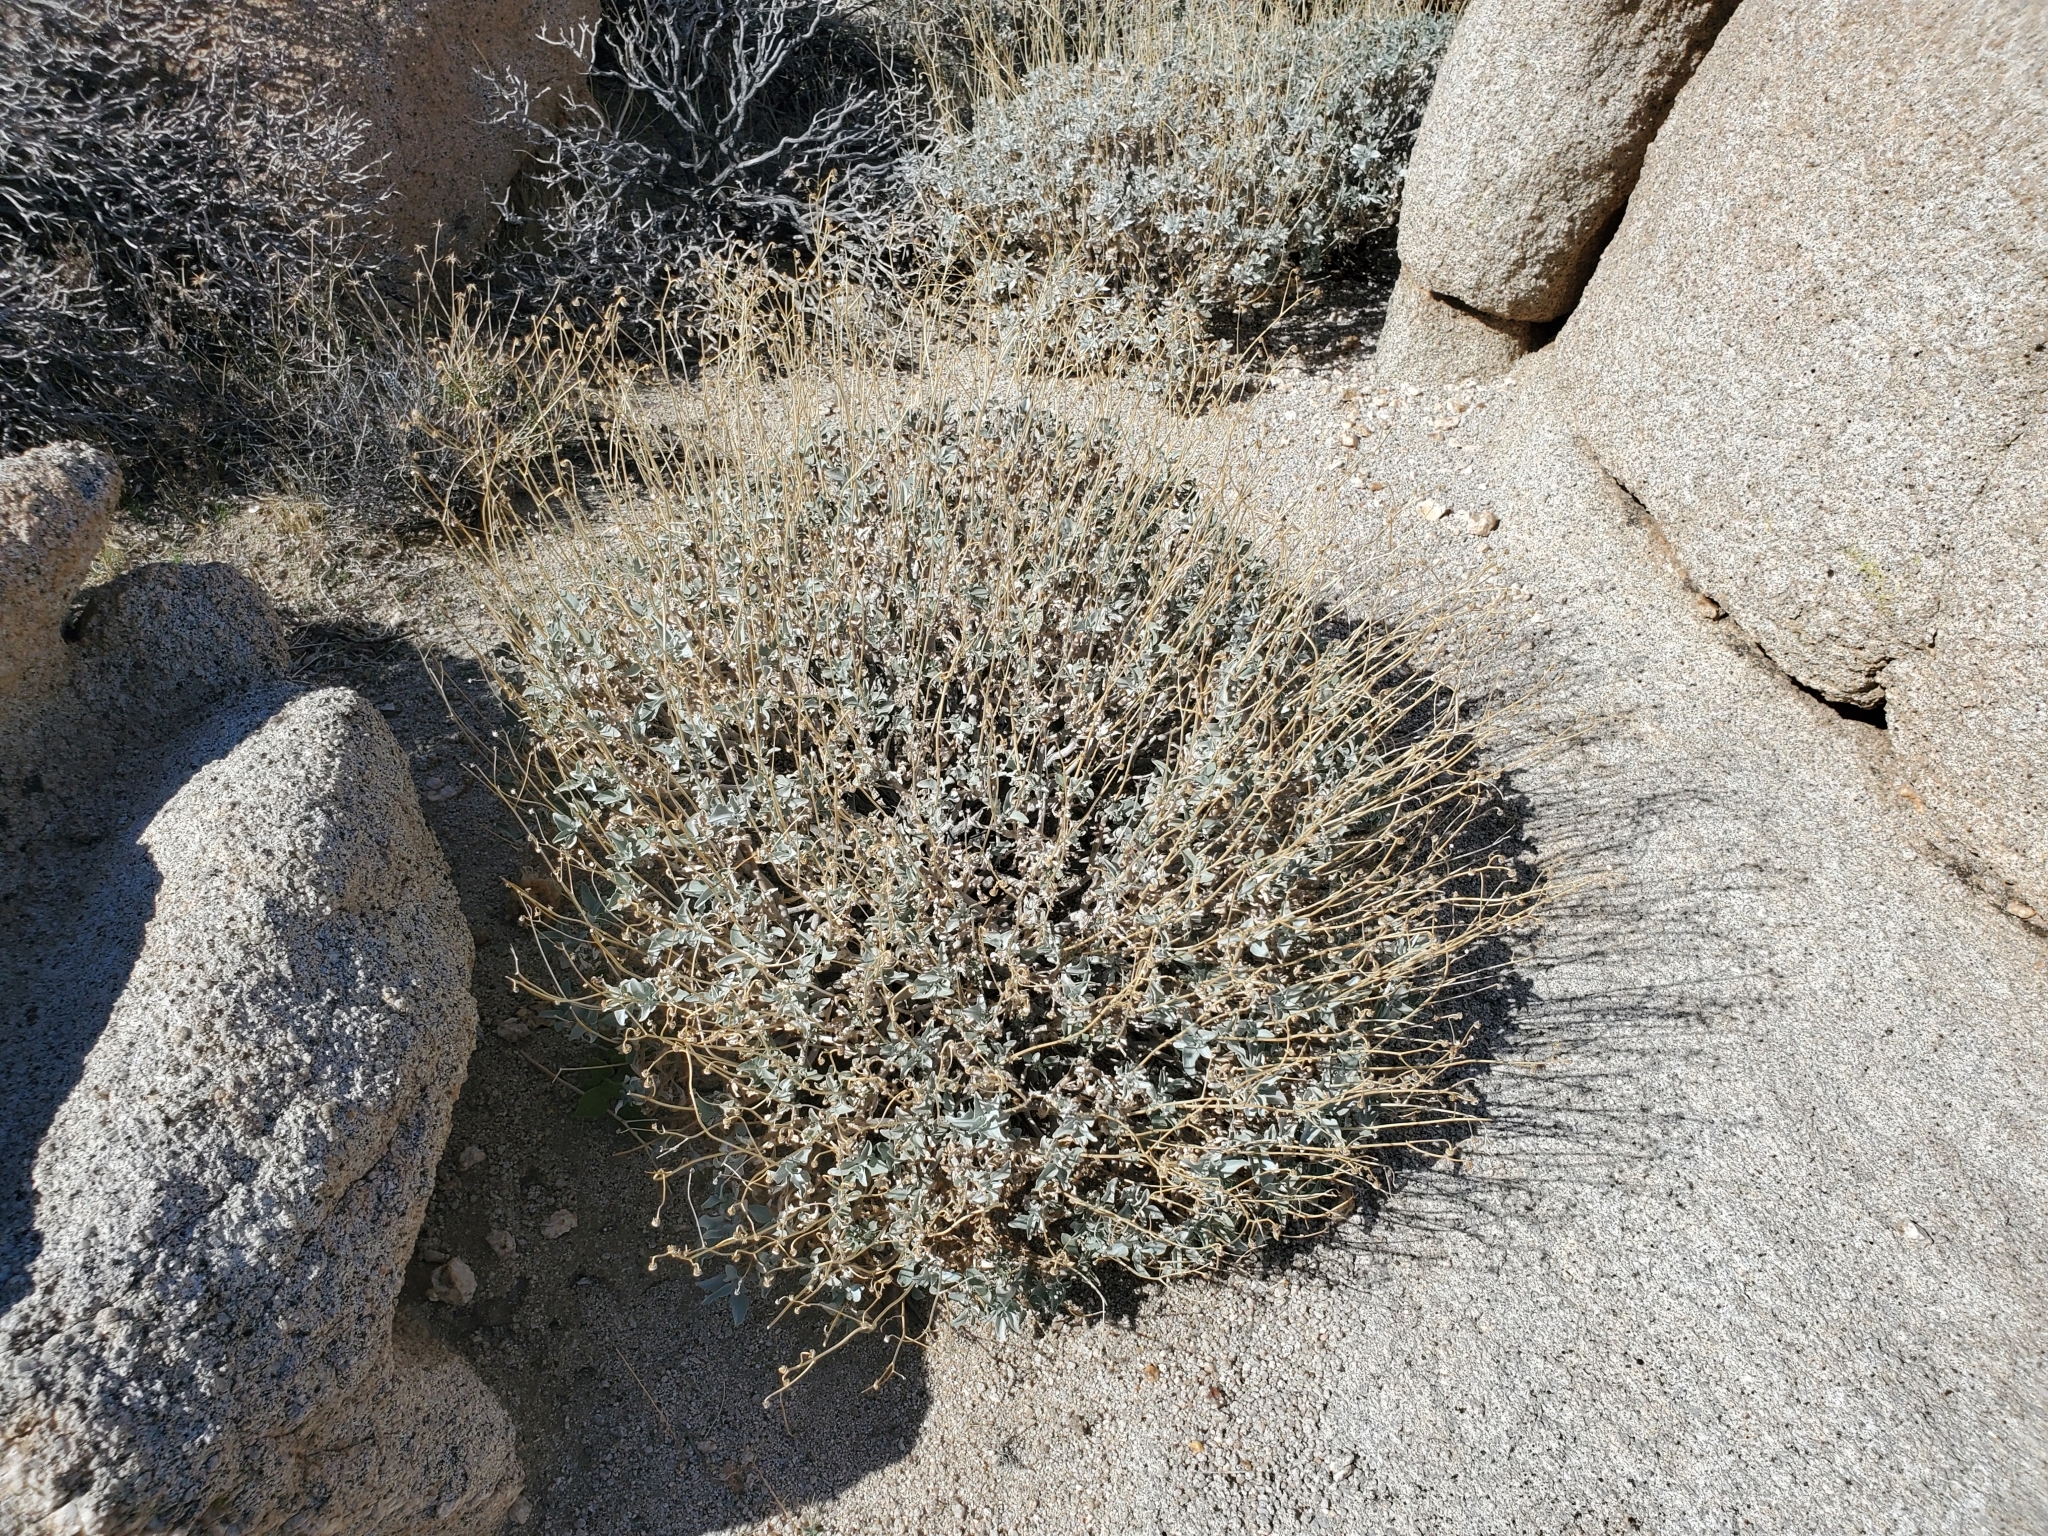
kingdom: Plantae
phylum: Tracheophyta
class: Magnoliopsida
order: Asterales
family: Asteraceae
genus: Encelia
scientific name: Encelia farinosa
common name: Brittlebush
